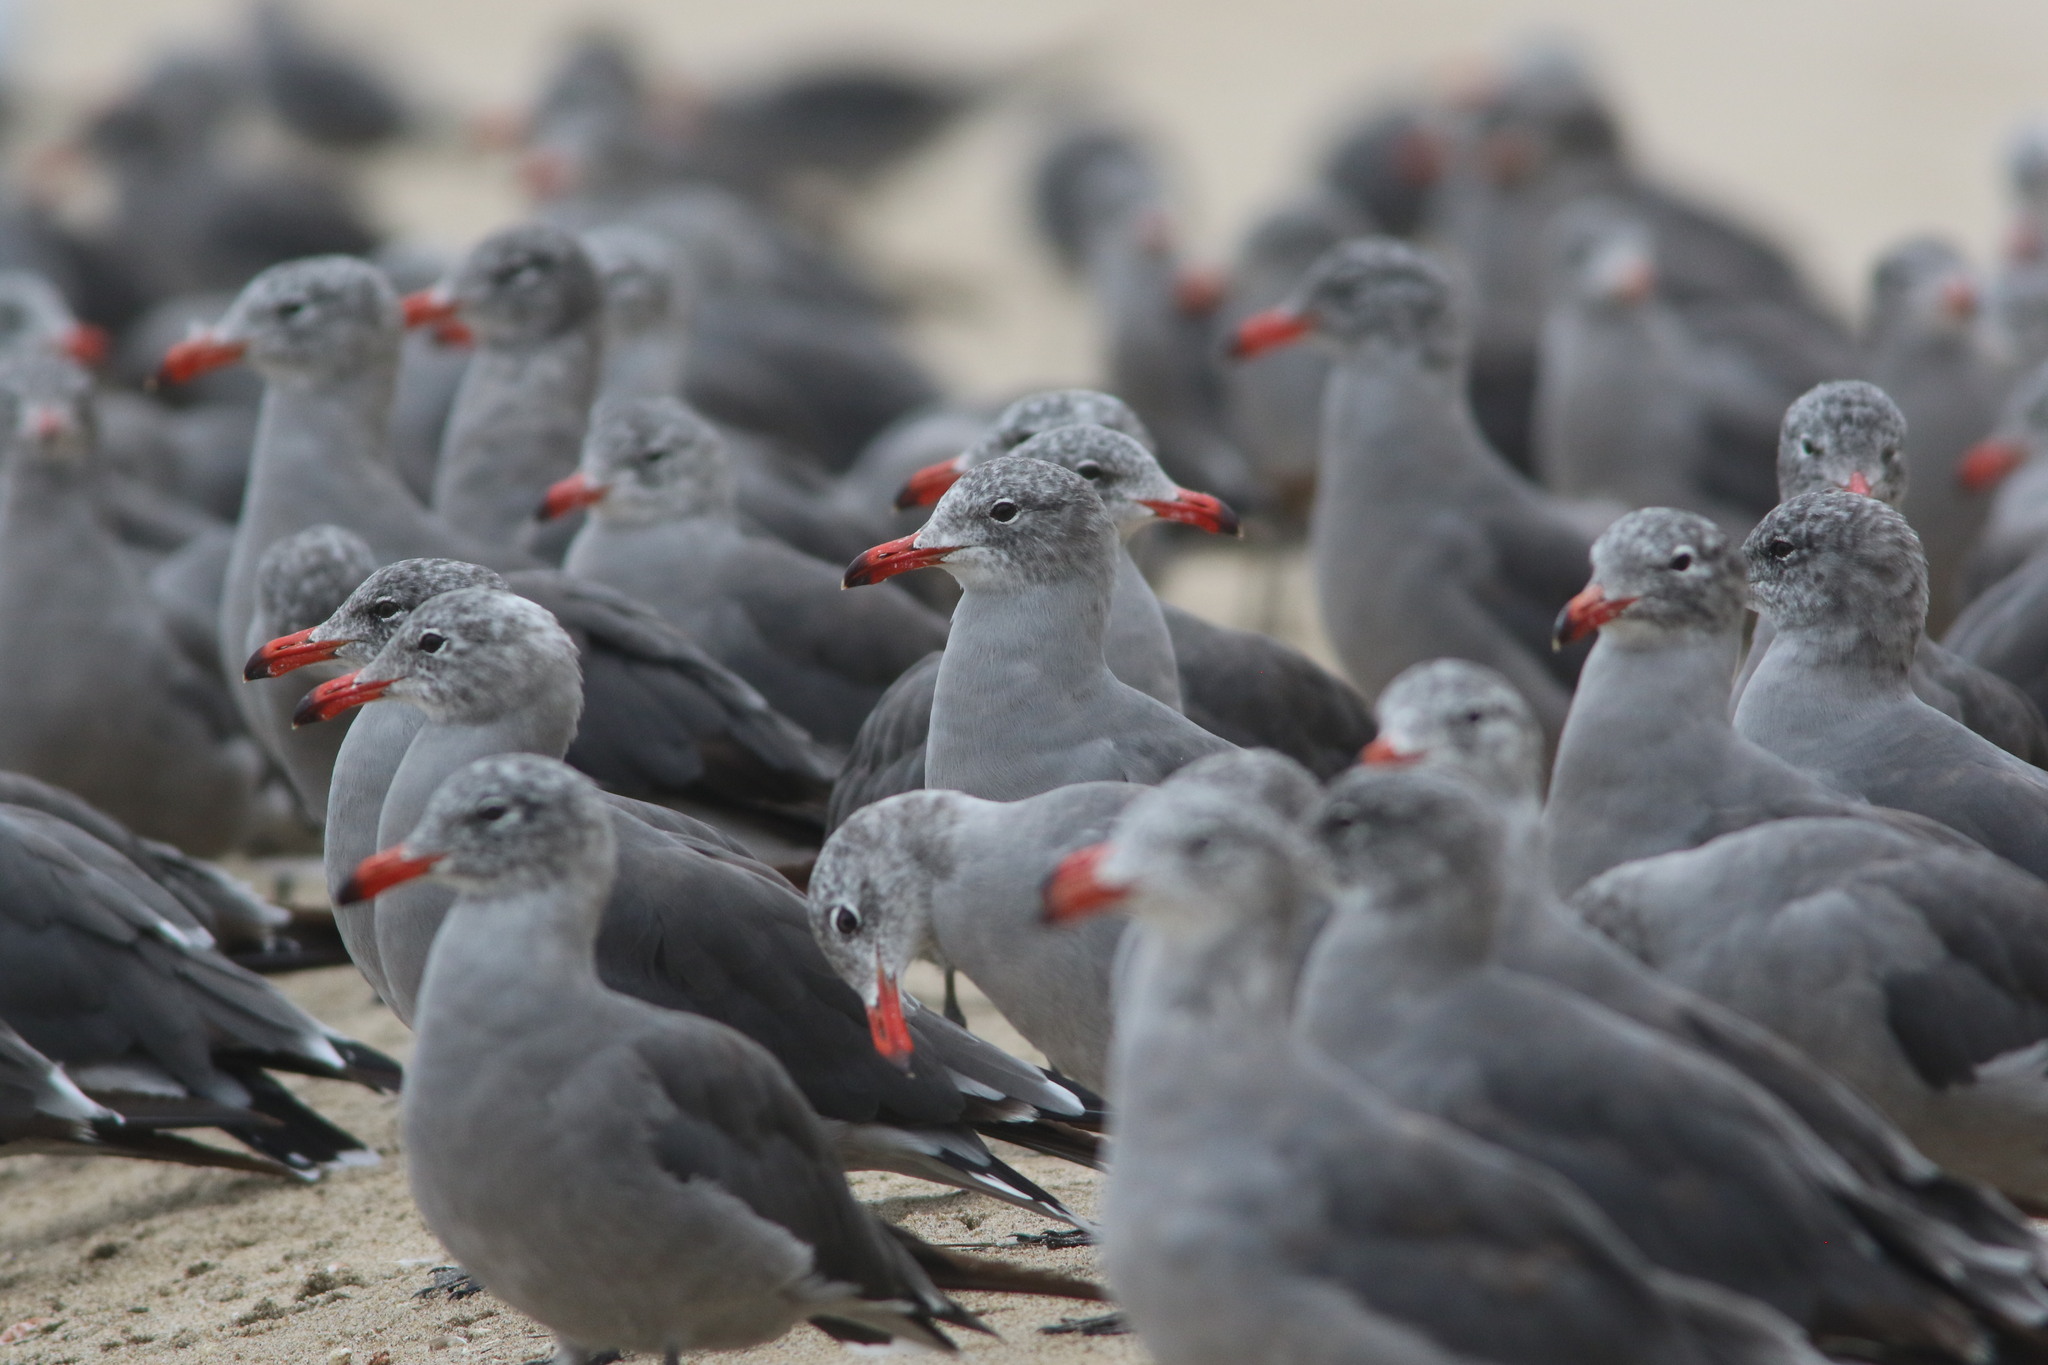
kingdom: Animalia
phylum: Chordata
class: Aves
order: Charadriiformes
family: Laridae
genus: Larus
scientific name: Larus heermanni
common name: Heermann's gull
